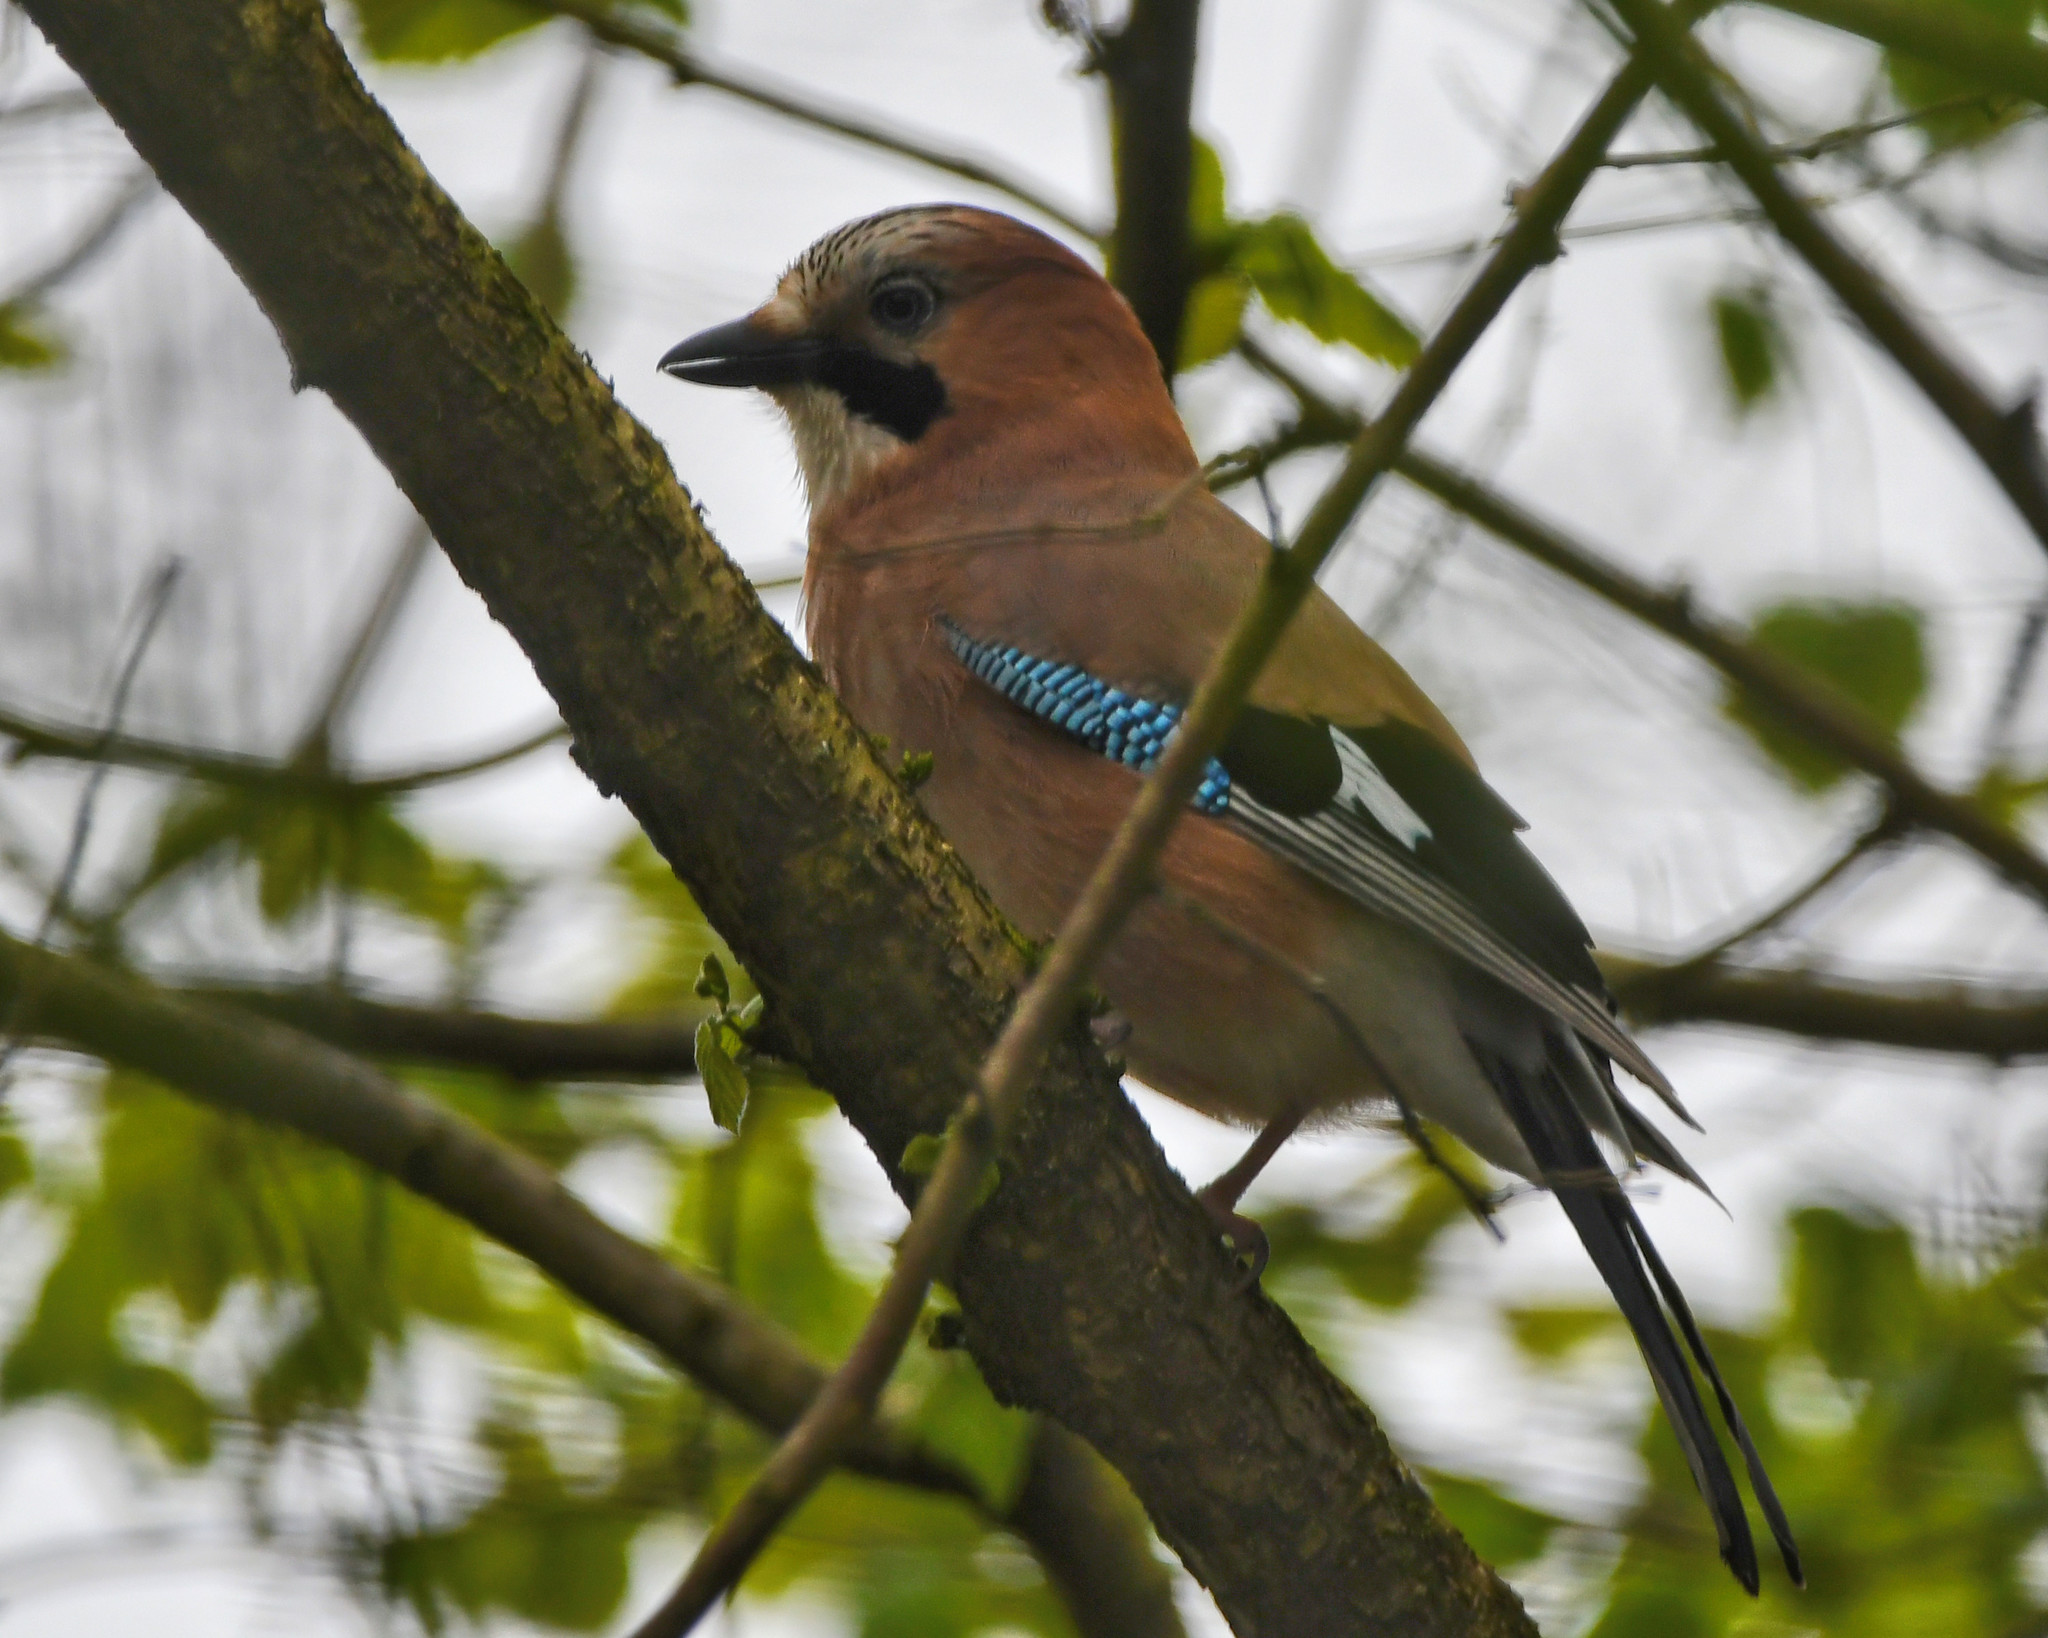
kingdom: Animalia
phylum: Chordata
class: Aves
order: Passeriformes
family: Corvidae
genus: Garrulus
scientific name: Garrulus glandarius
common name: Eurasian jay
